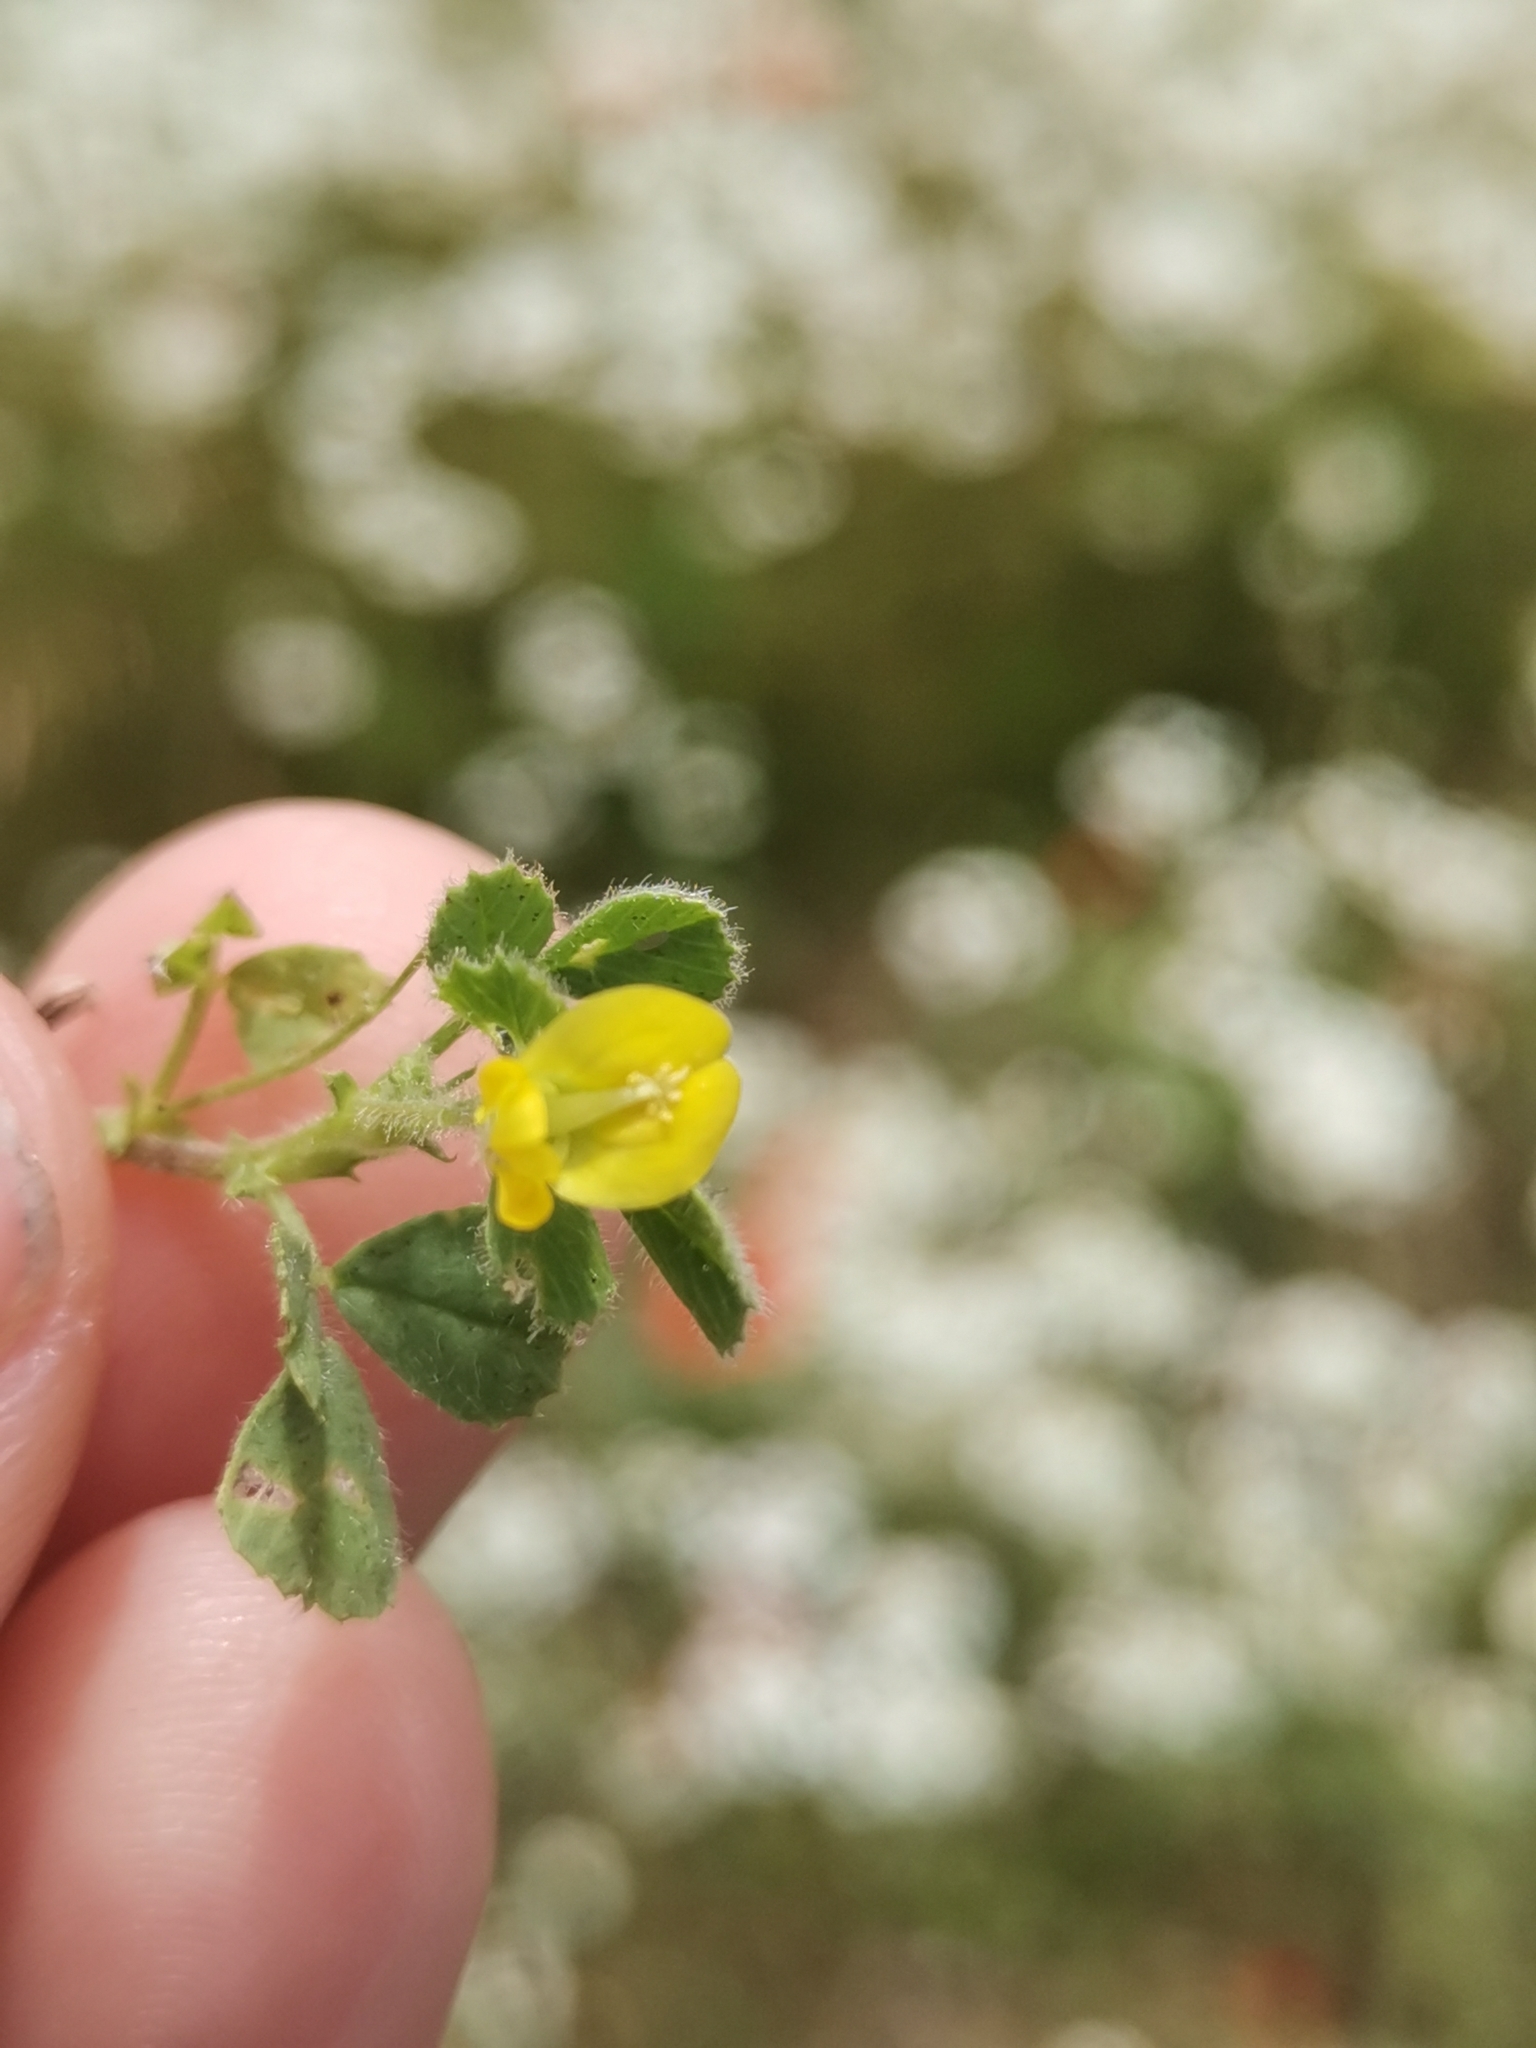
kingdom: Plantae
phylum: Tracheophyta
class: Magnoliopsida
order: Fabales
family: Fabaceae
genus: Medicago
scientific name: Medicago rigidula
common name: Tifton medic
